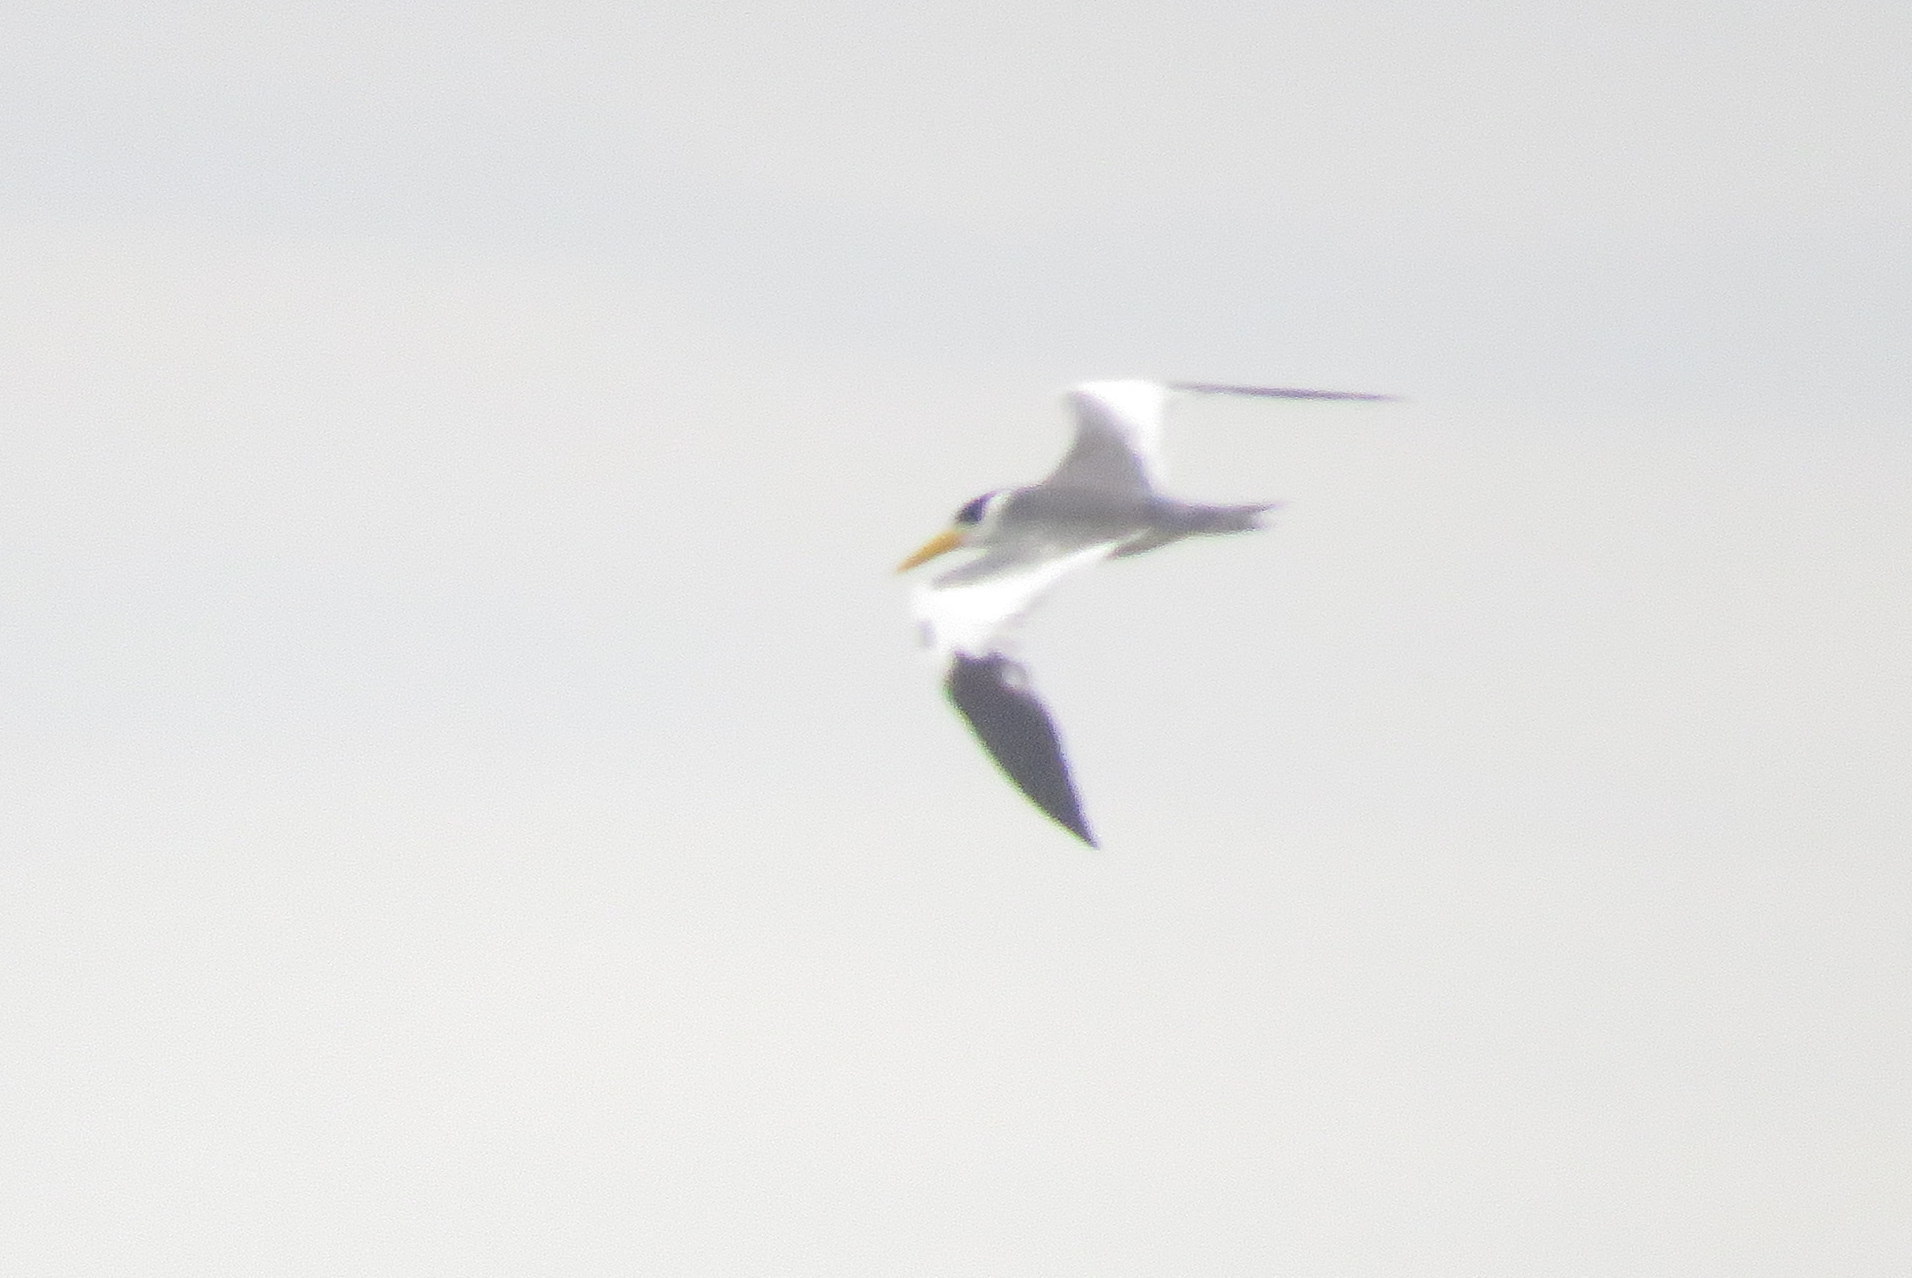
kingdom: Animalia
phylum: Chordata
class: Aves
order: Charadriiformes
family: Laridae
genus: Phaetusa
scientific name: Phaetusa simplex
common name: Large-billed tern
